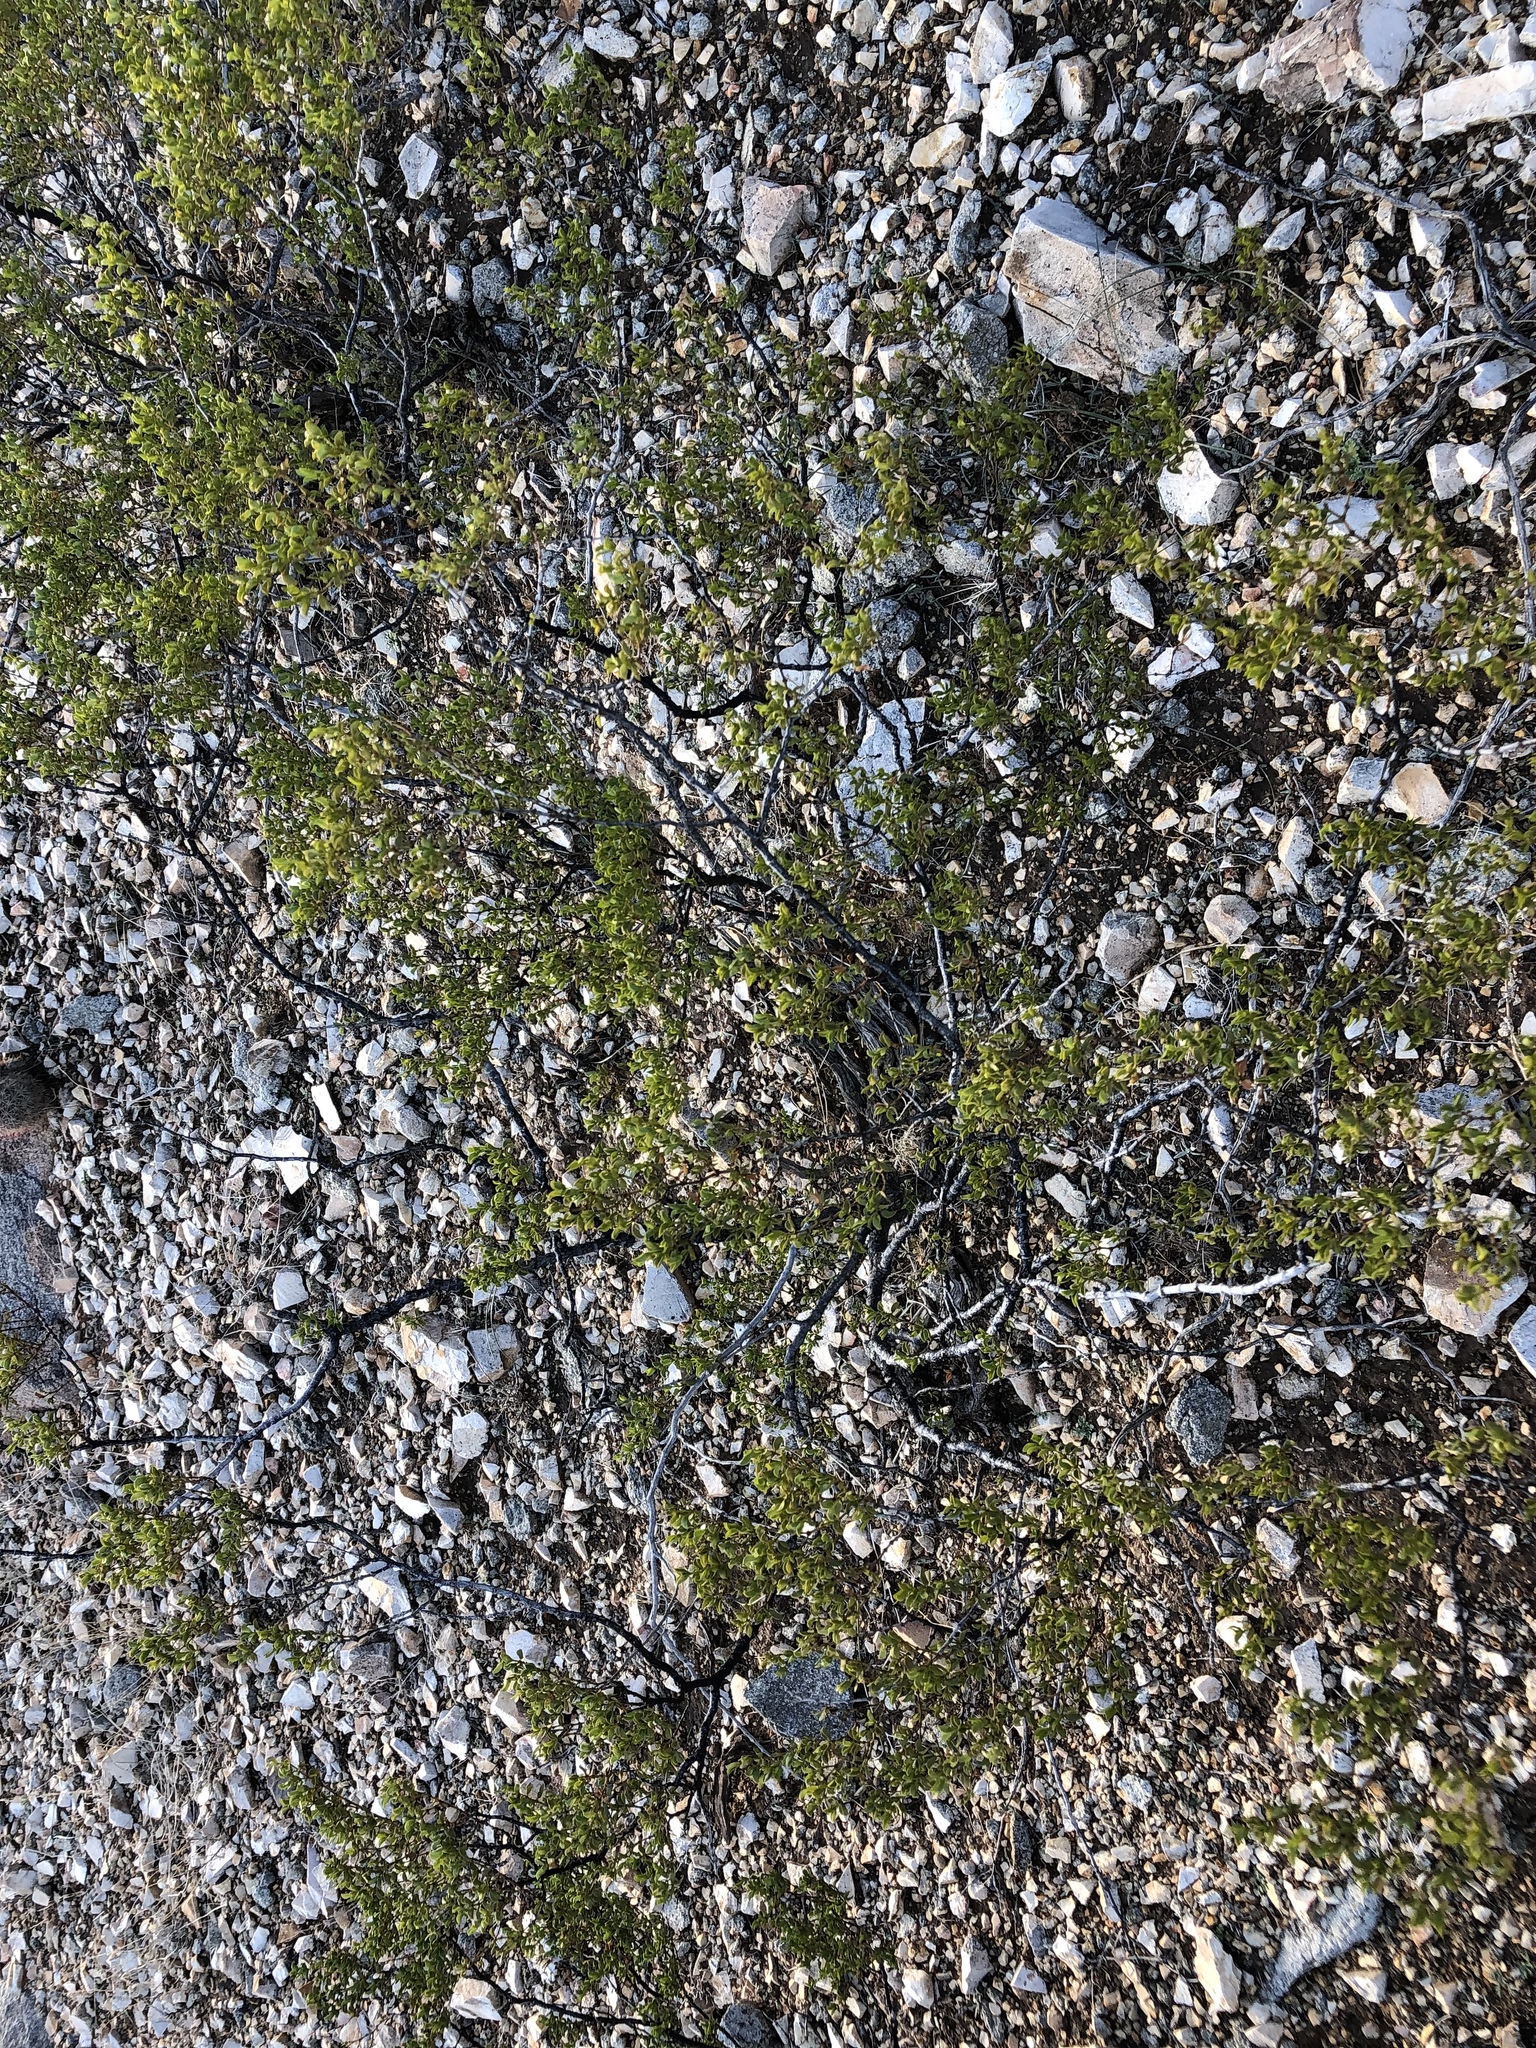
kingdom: Plantae
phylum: Tracheophyta
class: Magnoliopsida
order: Zygophyllales
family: Zygophyllaceae
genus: Larrea
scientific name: Larrea tridentata
